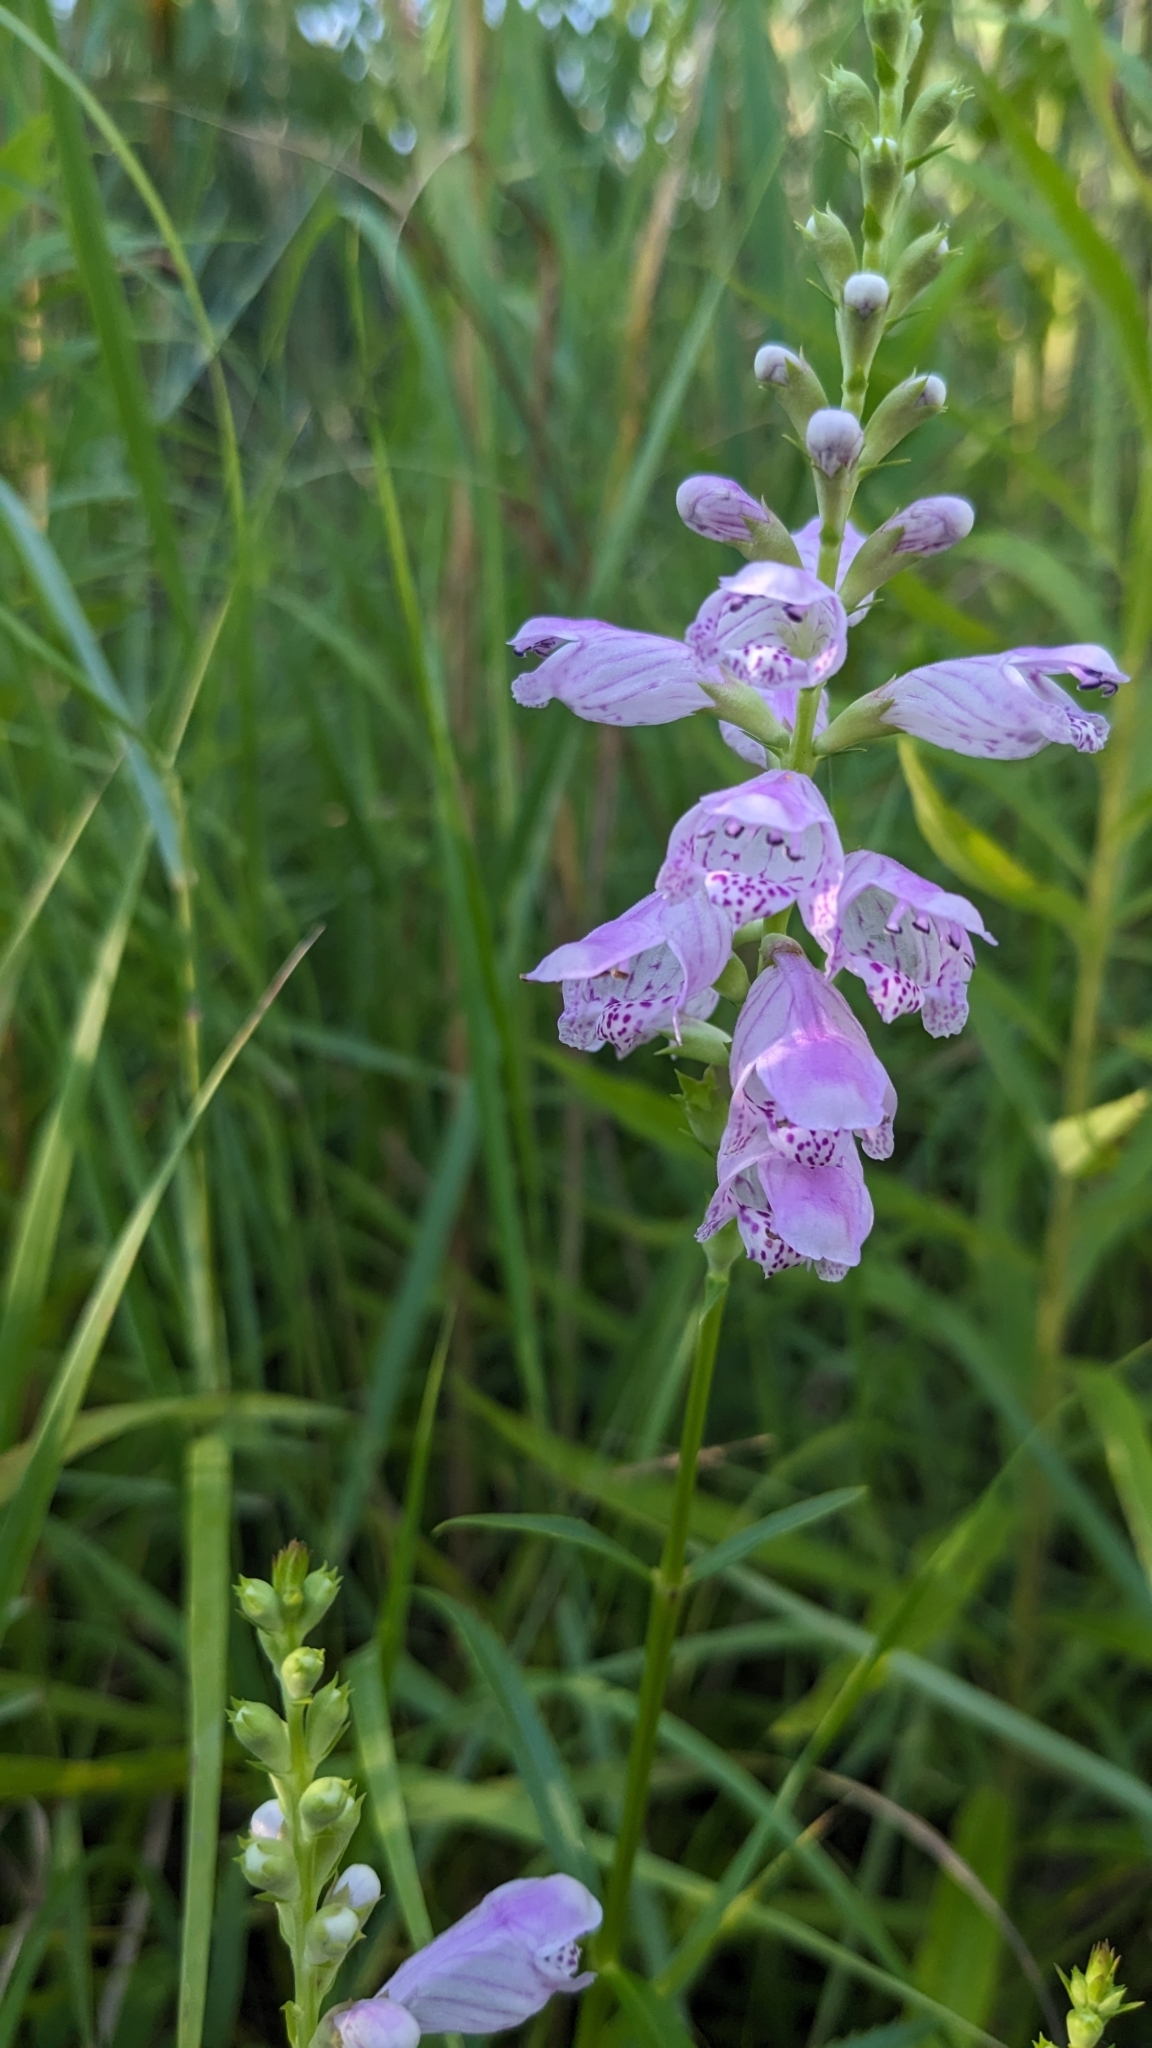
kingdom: Plantae
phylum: Tracheophyta
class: Magnoliopsida
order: Lamiales
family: Lamiaceae
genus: Physostegia
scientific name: Physostegia virginiana
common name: Obedient-plant
